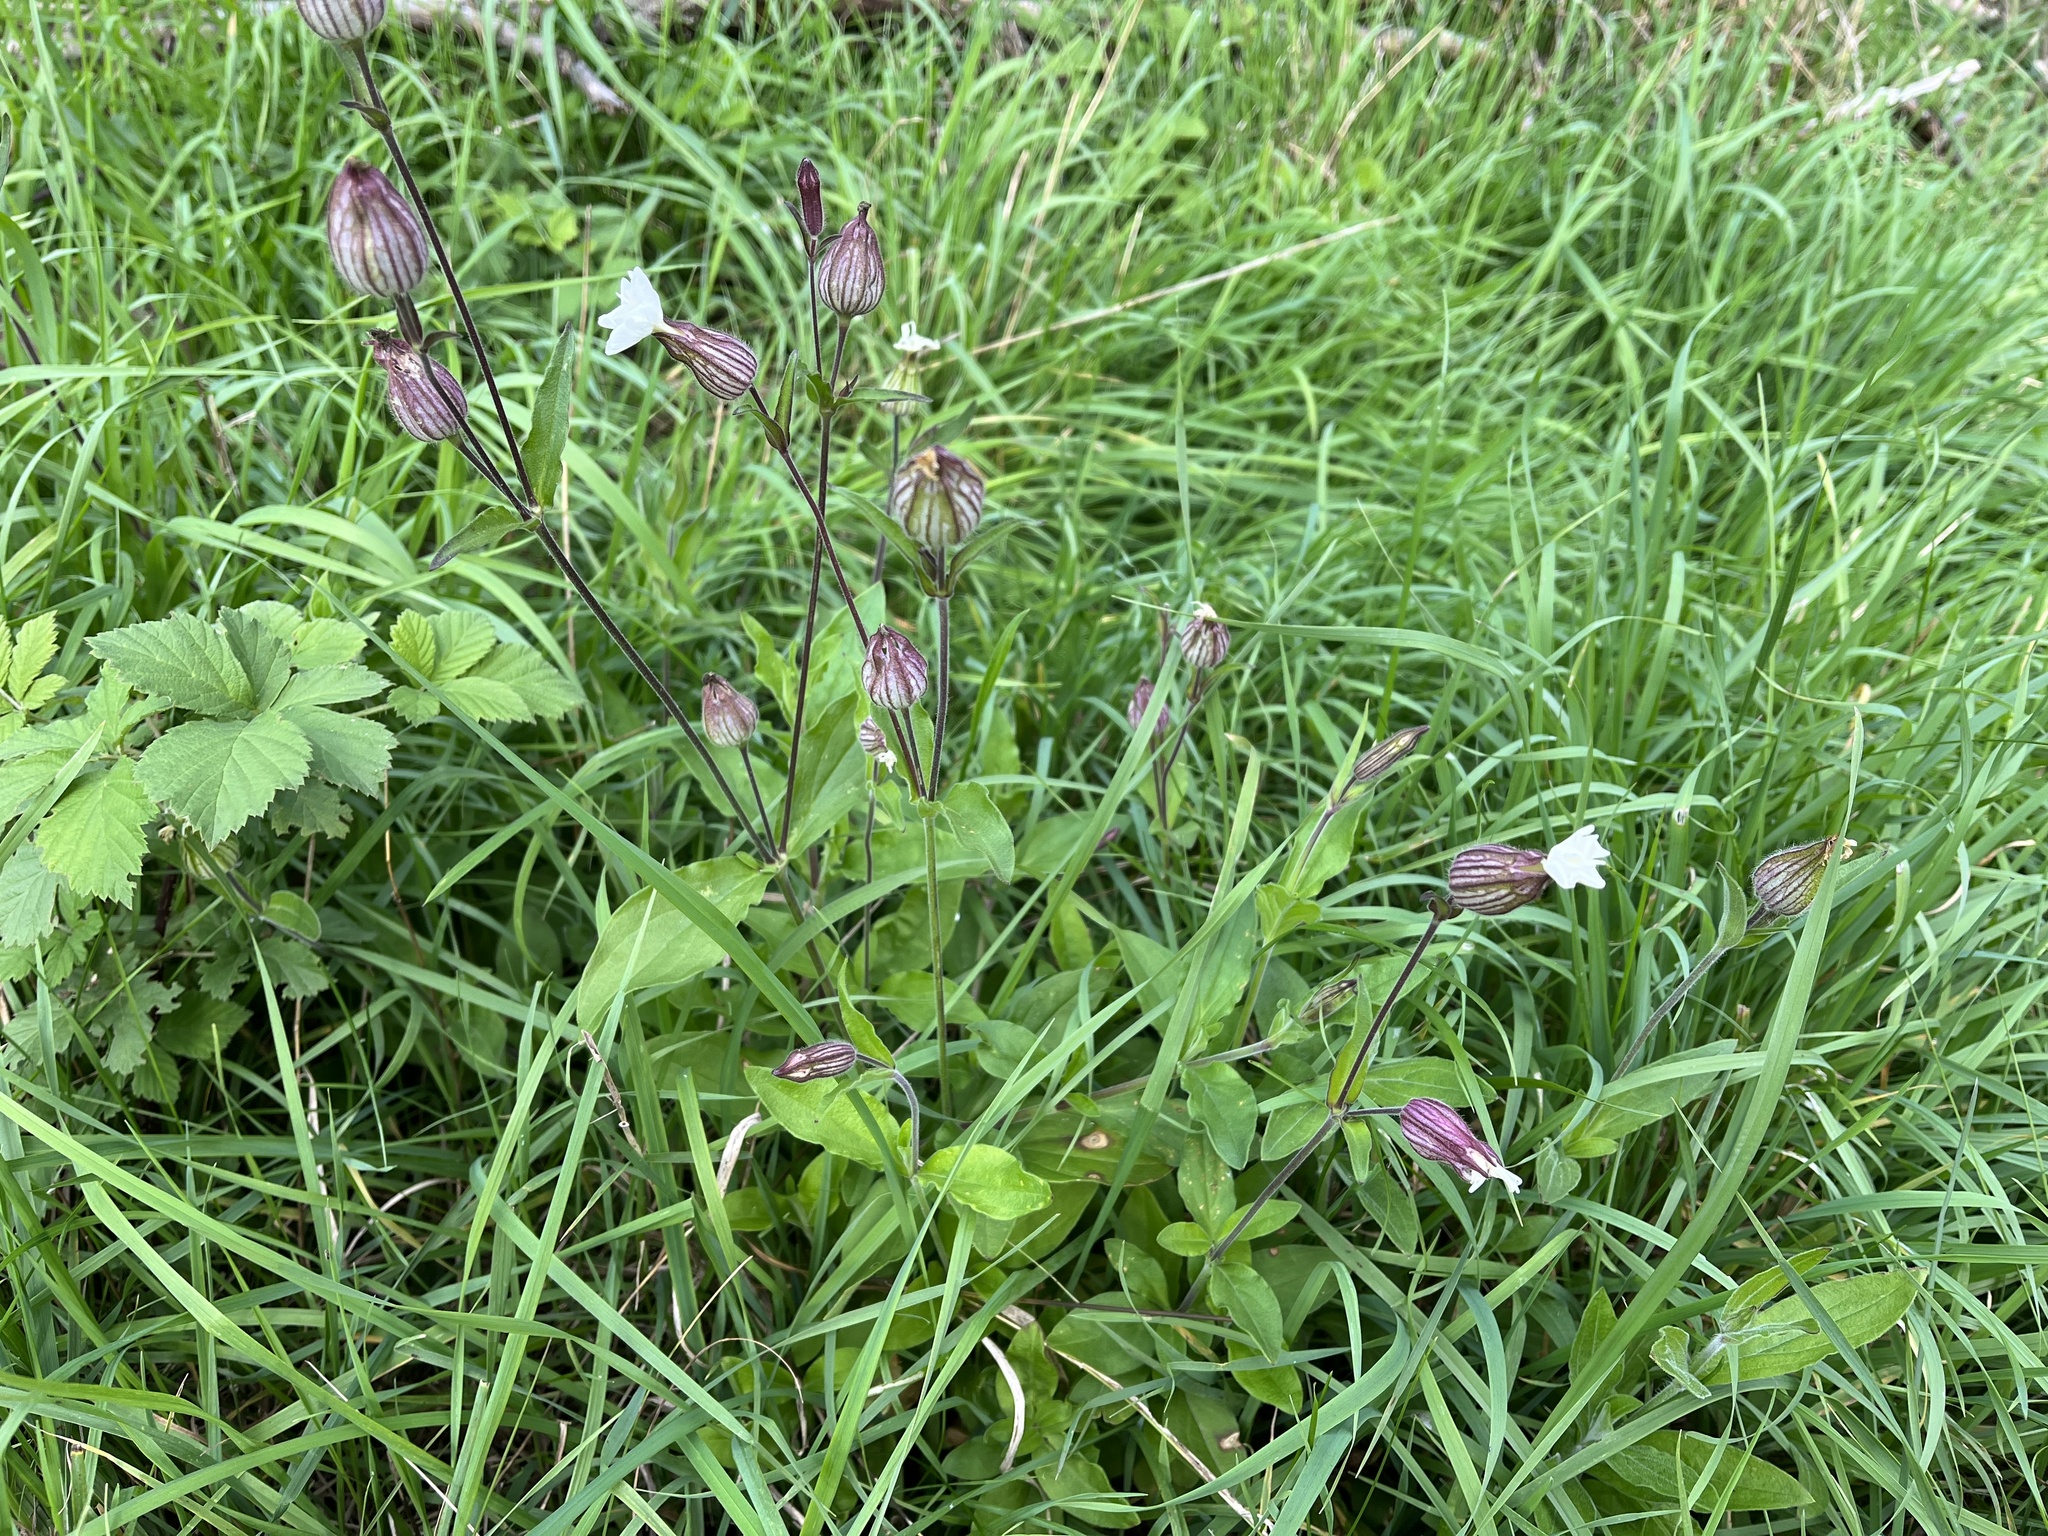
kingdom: Plantae
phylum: Tracheophyta
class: Magnoliopsida
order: Caryophyllales
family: Caryophyllaceae
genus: Silene
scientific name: Silene latifolia
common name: White campion
